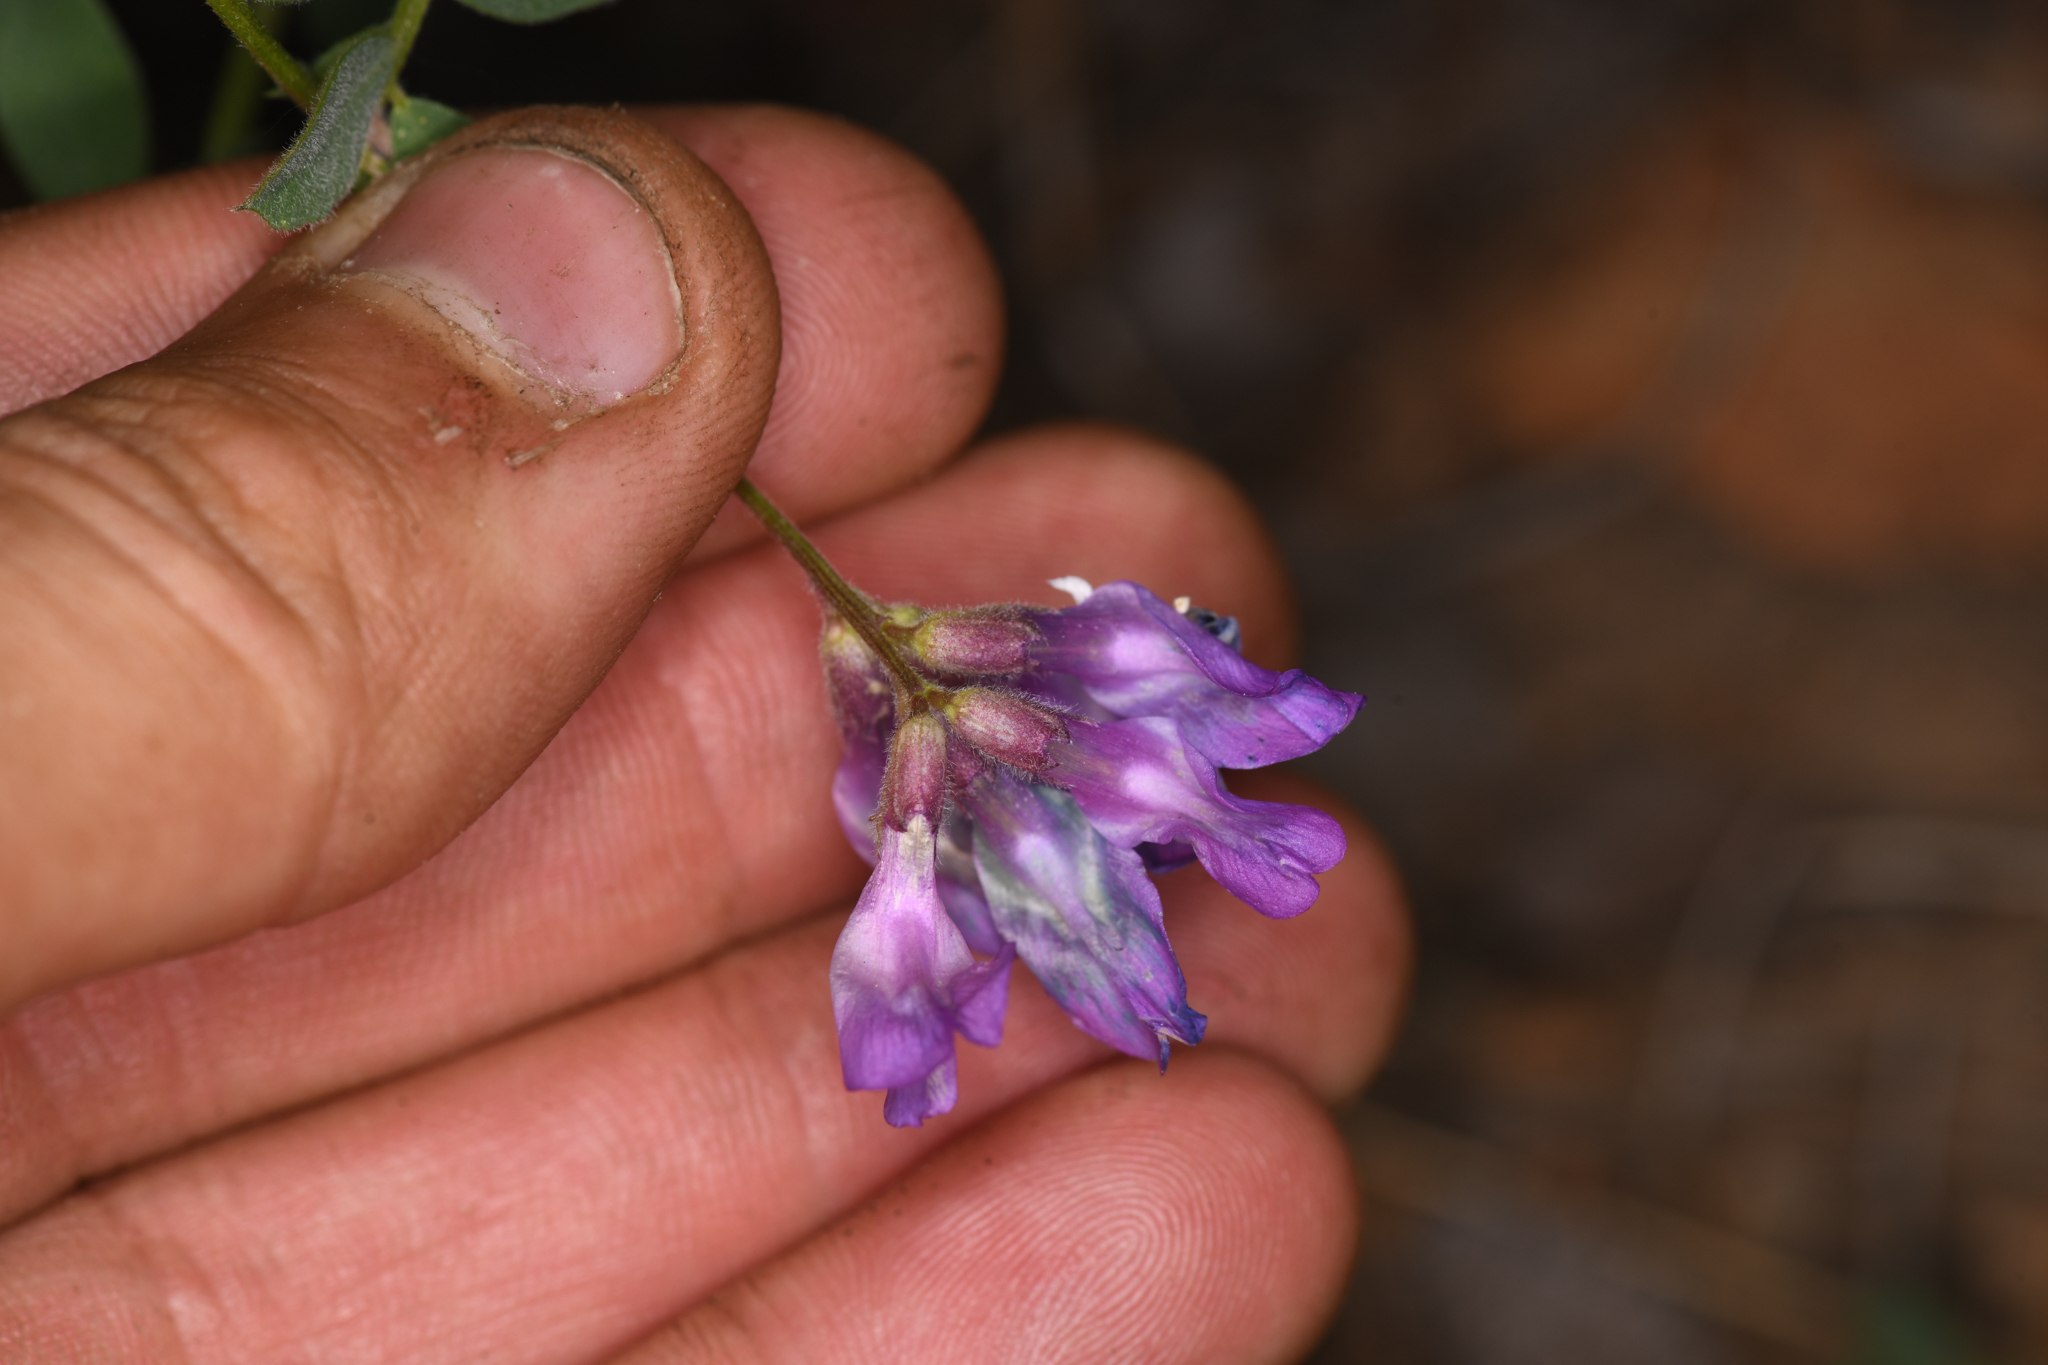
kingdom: Plantae
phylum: Tracheophyta
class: Magnoliopsida
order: Fabales
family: Fabaceae
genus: Vicia
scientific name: Vicia americana
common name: American vetch
